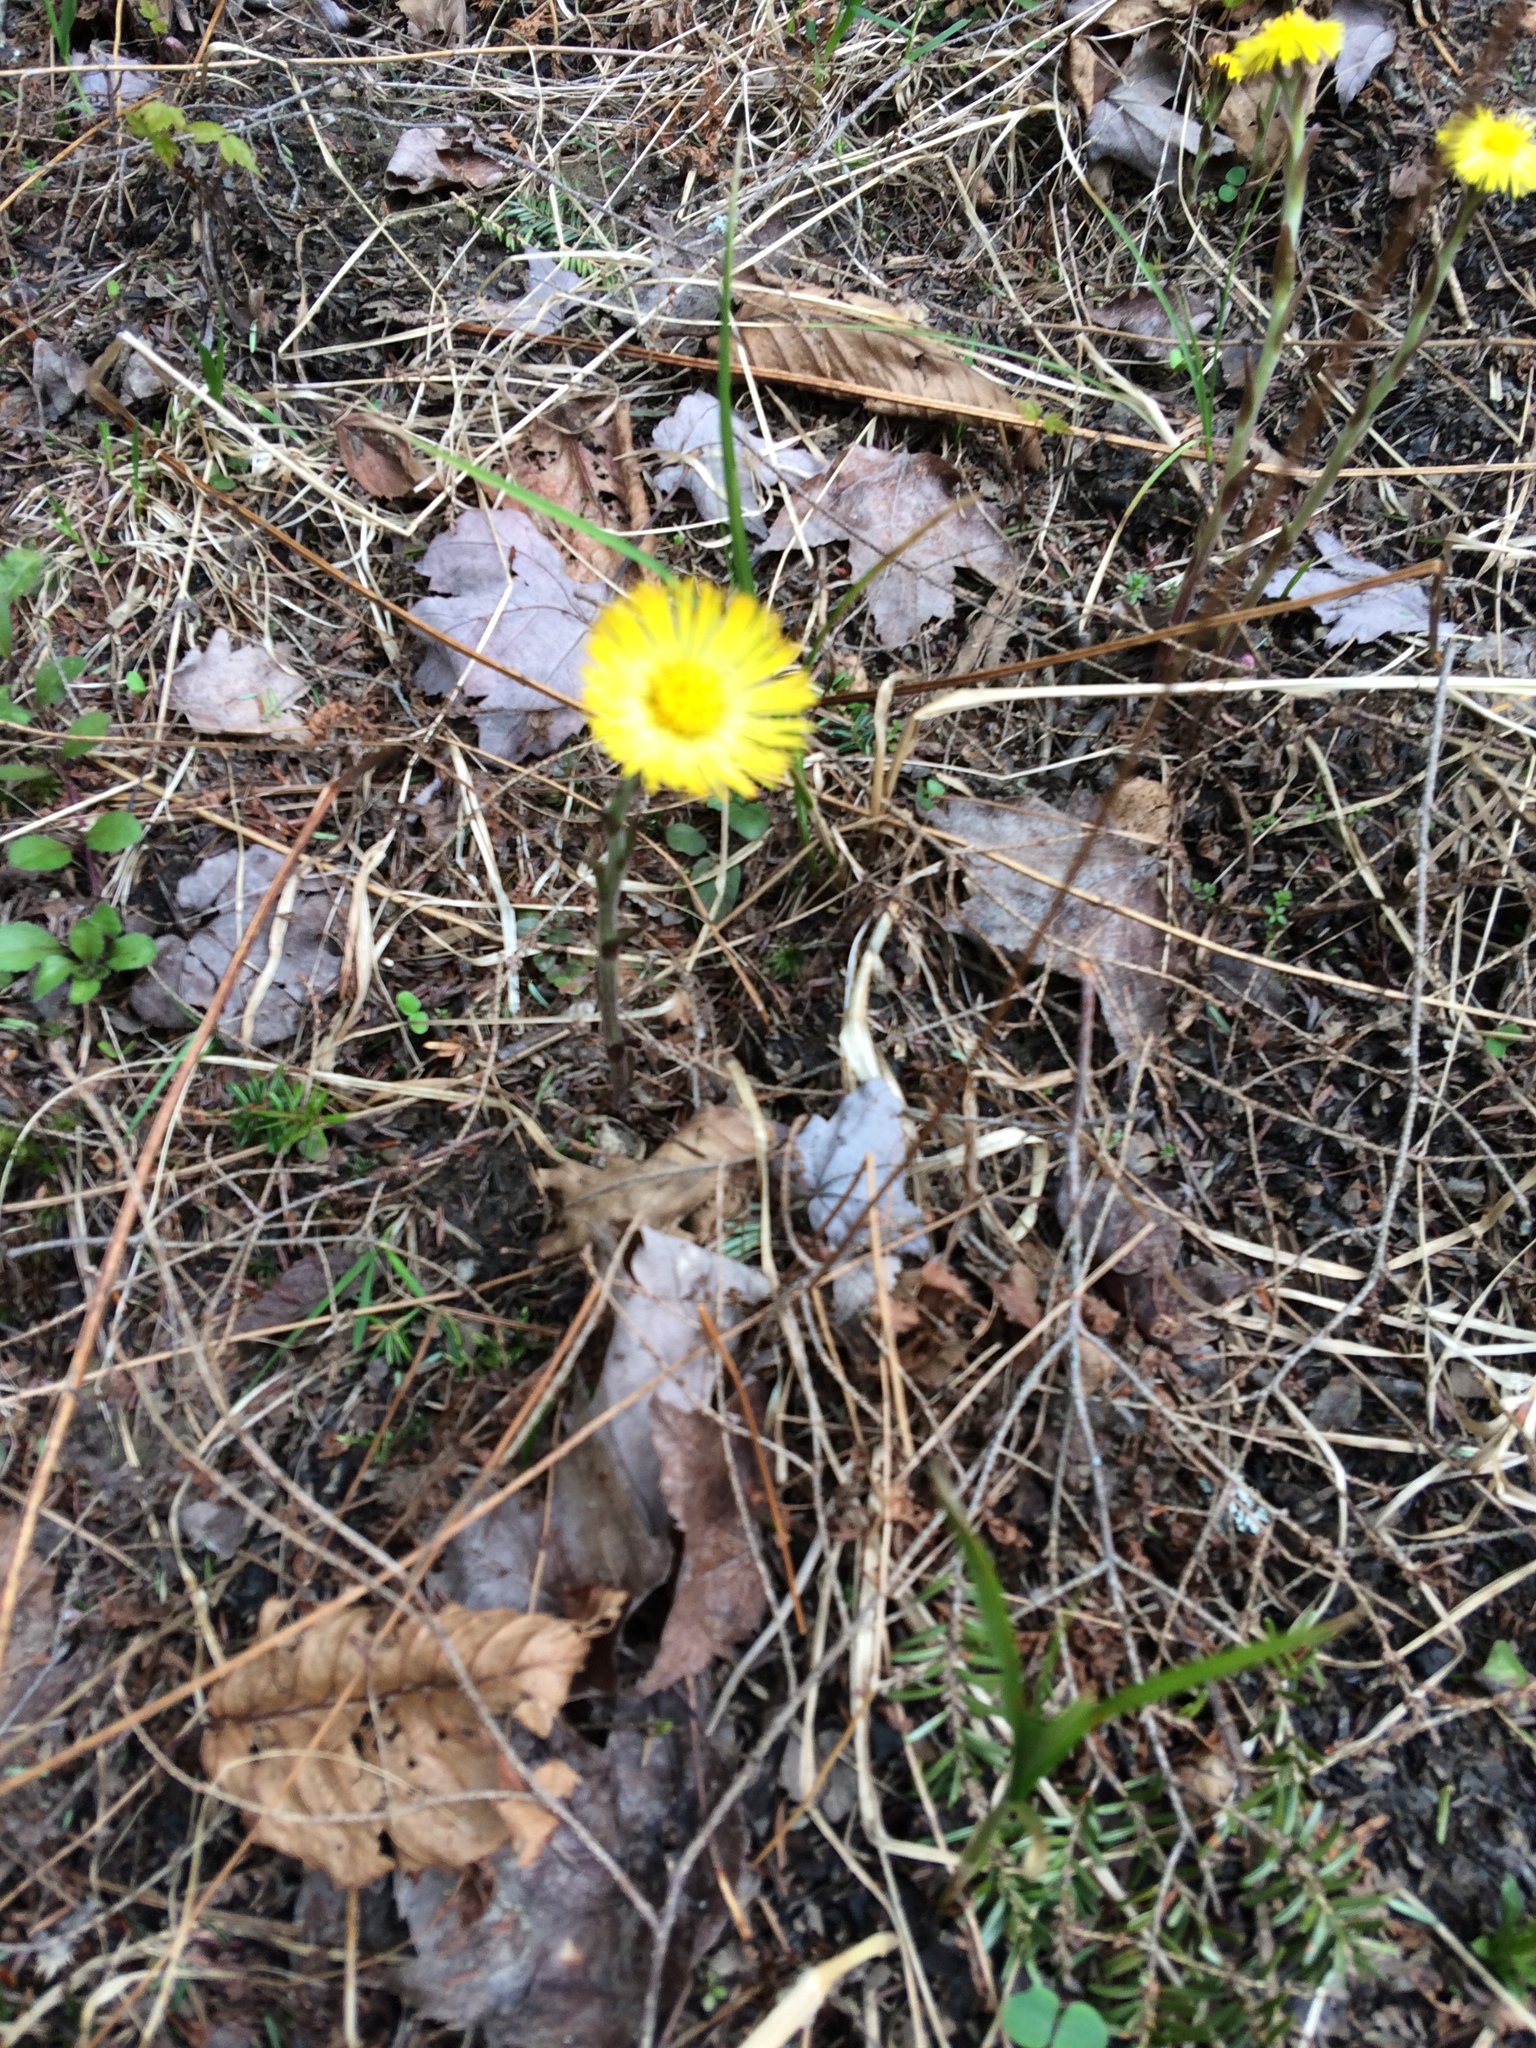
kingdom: Plantae
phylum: Tracheophyta
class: Magnoliopsida
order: Asterales
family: Asteraceae
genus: Tussilago
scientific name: Tussilago farfara
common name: Coltsfoot
